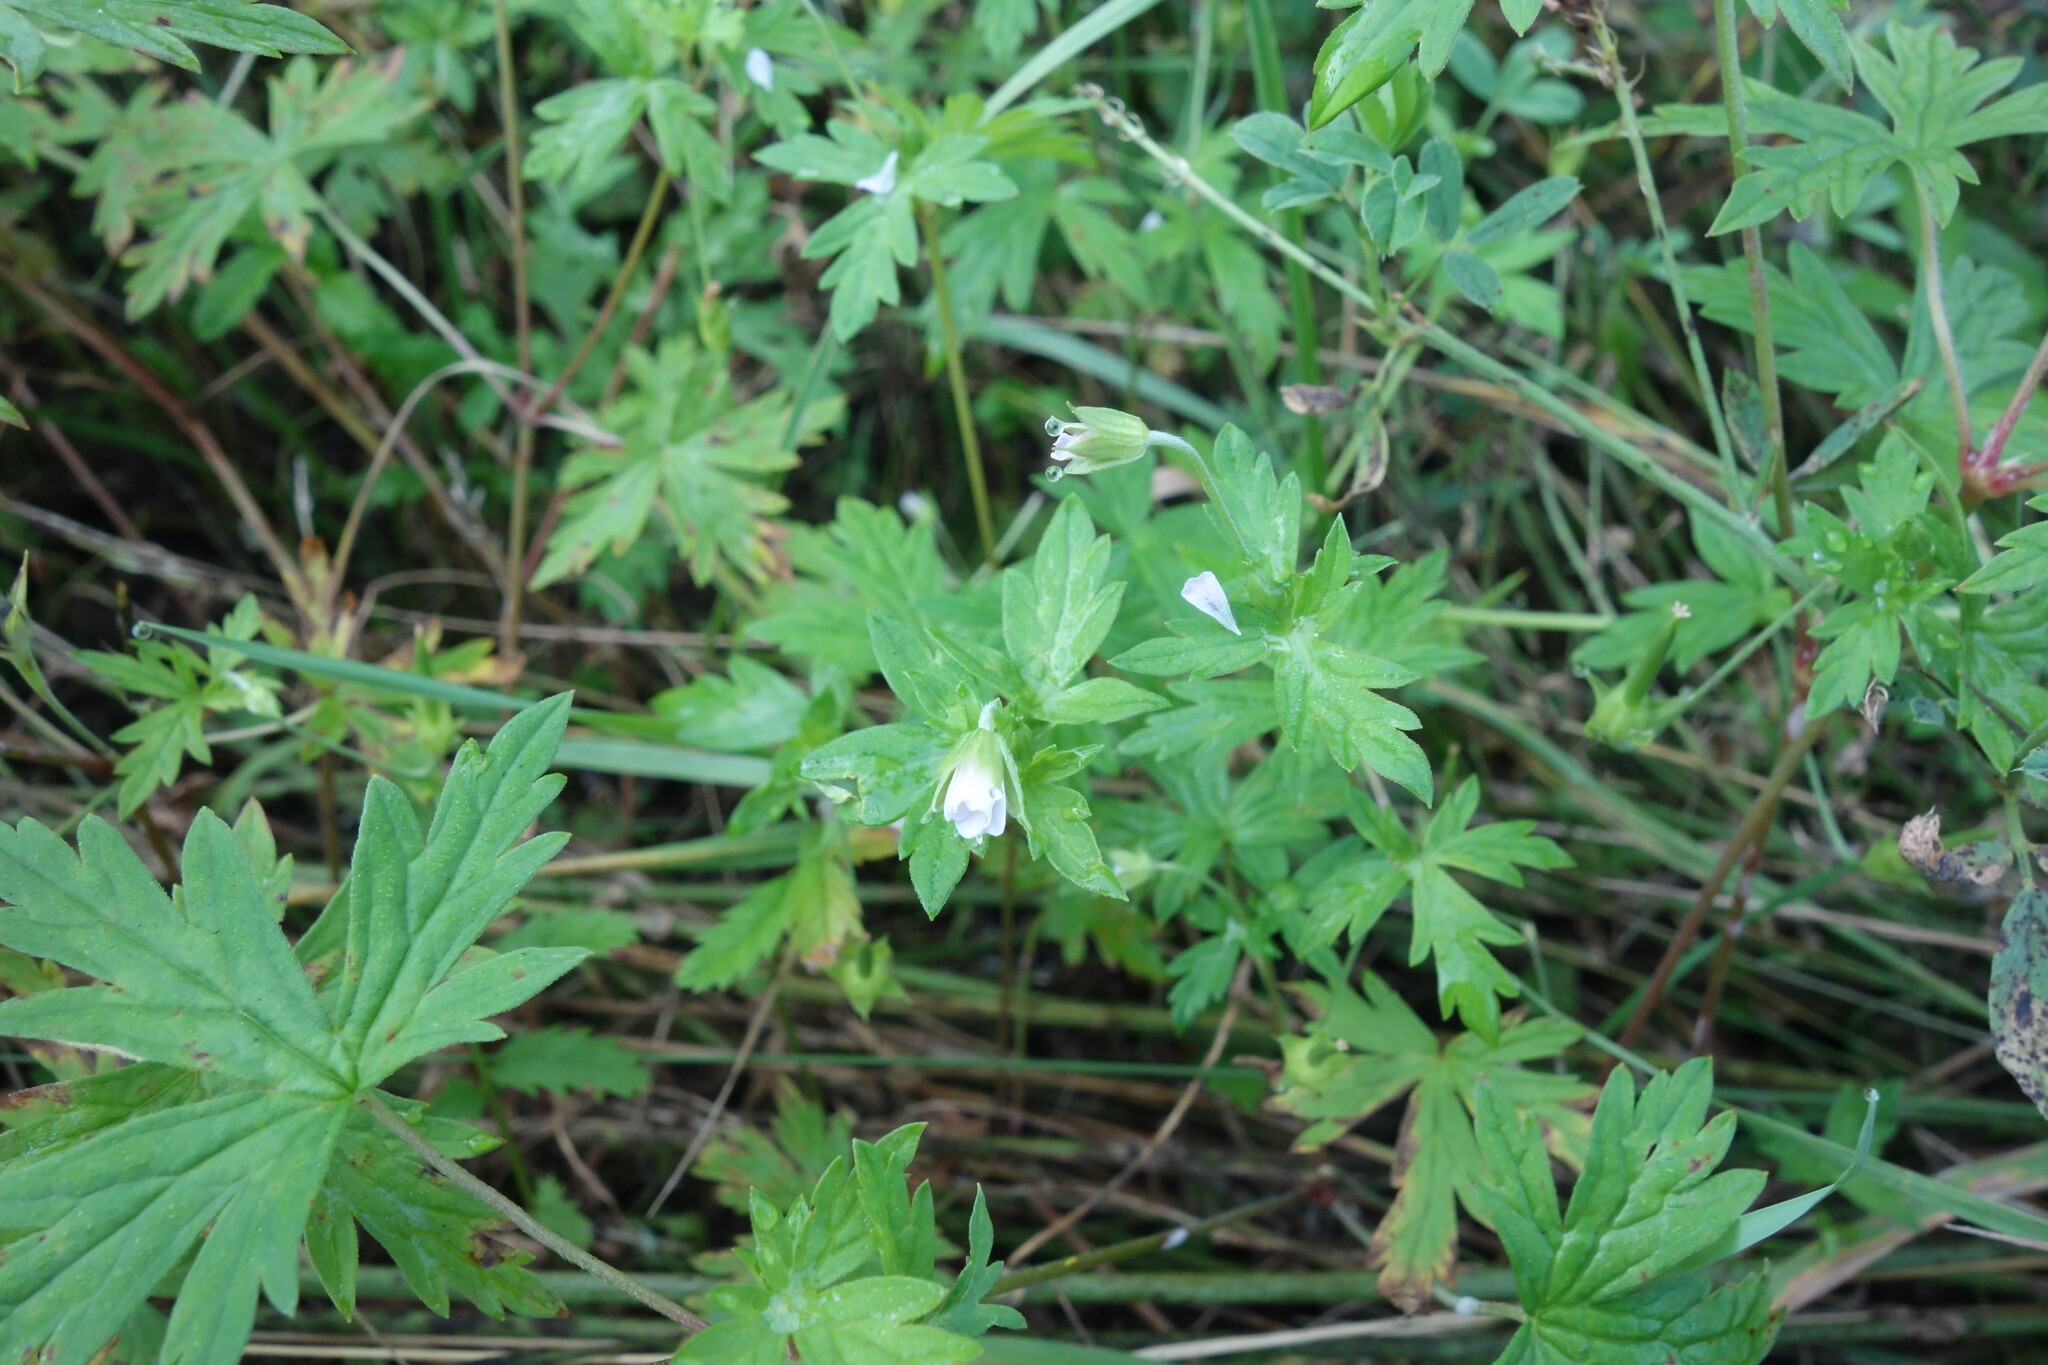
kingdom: Plantae
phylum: Tracheophyta
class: Magnoliopsida
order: Geraniales
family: Geraniaceae
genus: Geranium
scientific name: Geranium sibiricum
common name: Siberian crane's-bill
